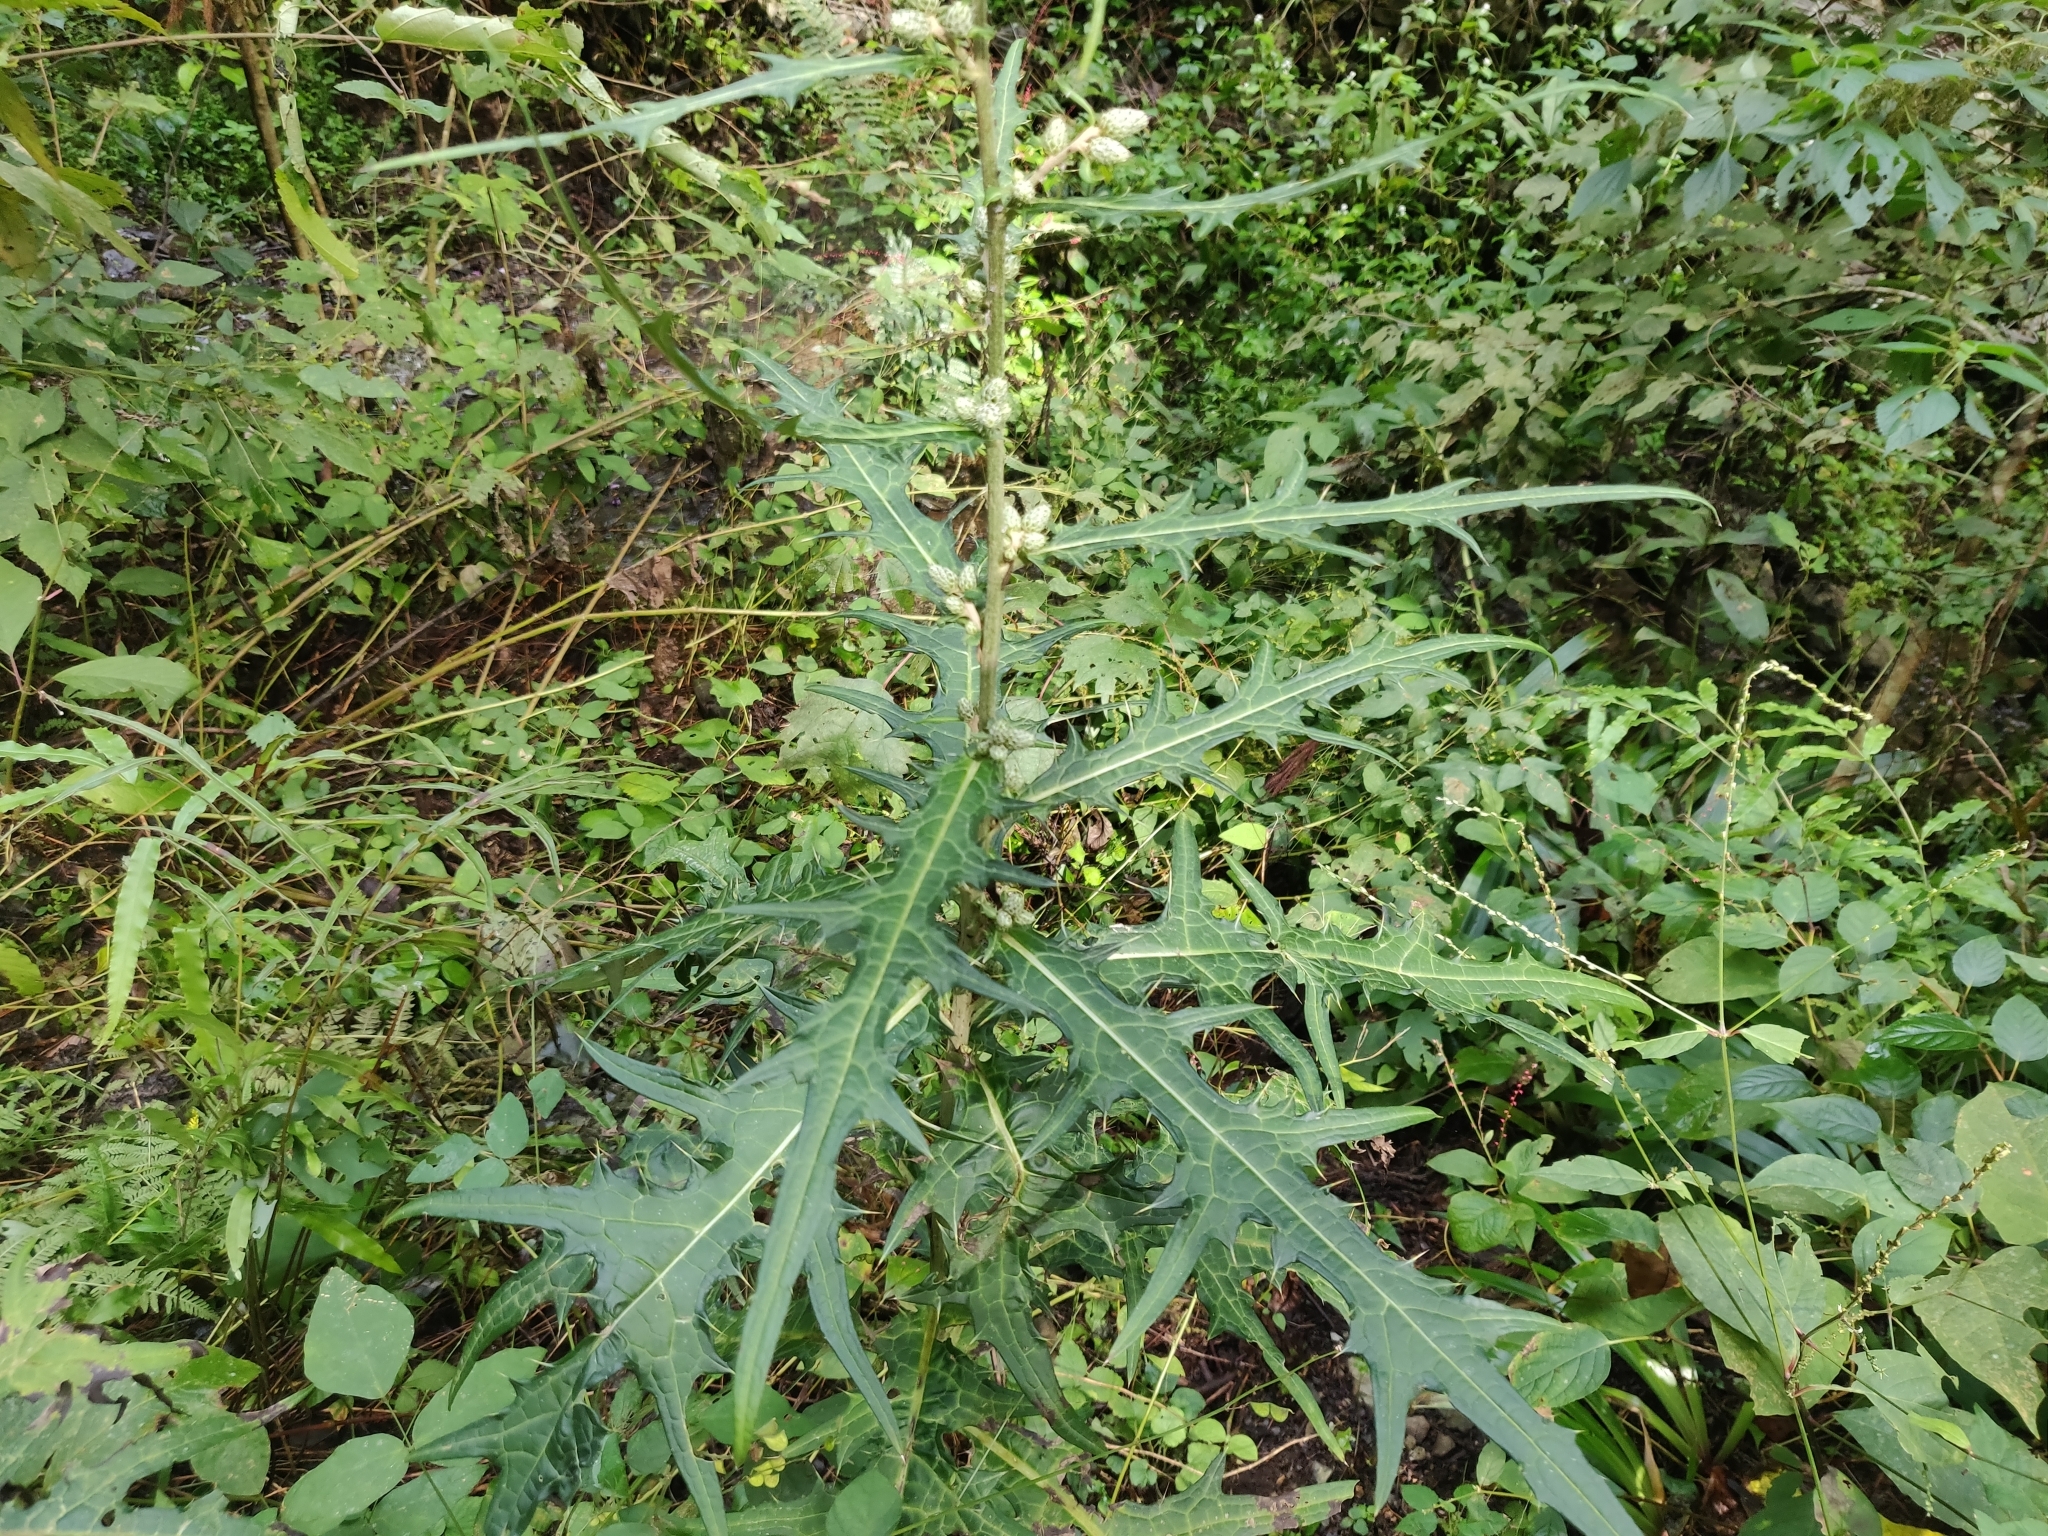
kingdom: Plantae
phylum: Tracheophyta
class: Magnoliopsida
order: Asterales
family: Asteraceae
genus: Cirsium
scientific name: Cirsium microspicatum
